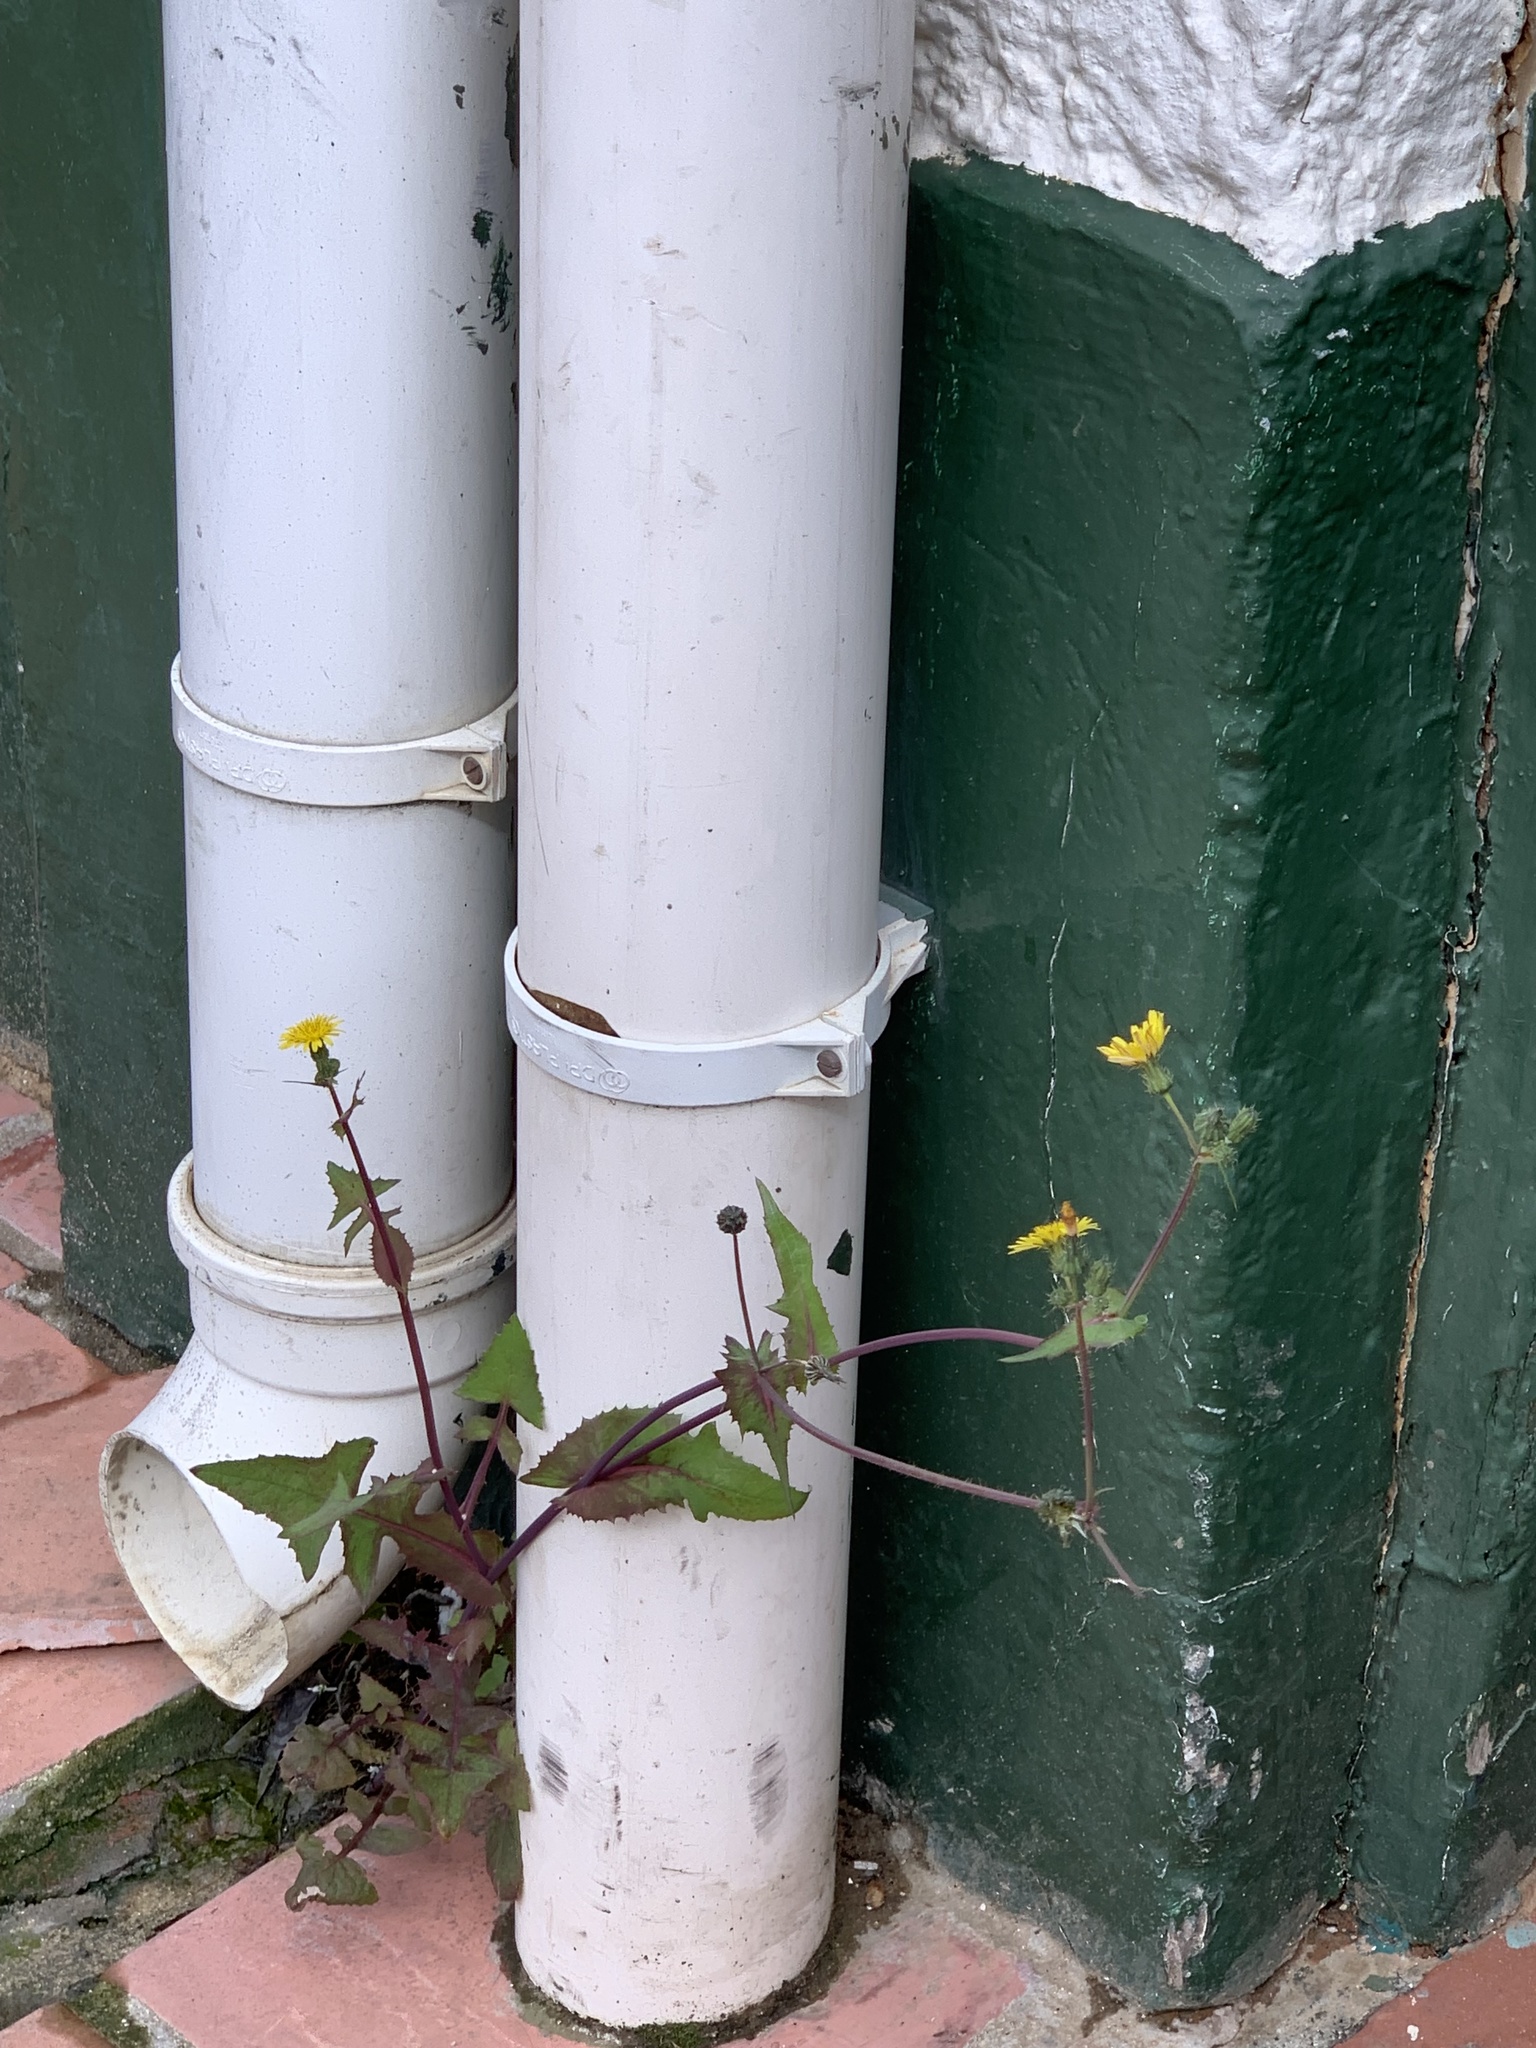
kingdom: Plantae
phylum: Tracheophyta
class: Magnoliopsida
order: Asterales
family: Asteraceae
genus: Sonchus
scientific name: Sonchus oleraceus
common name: Common sowthistle
